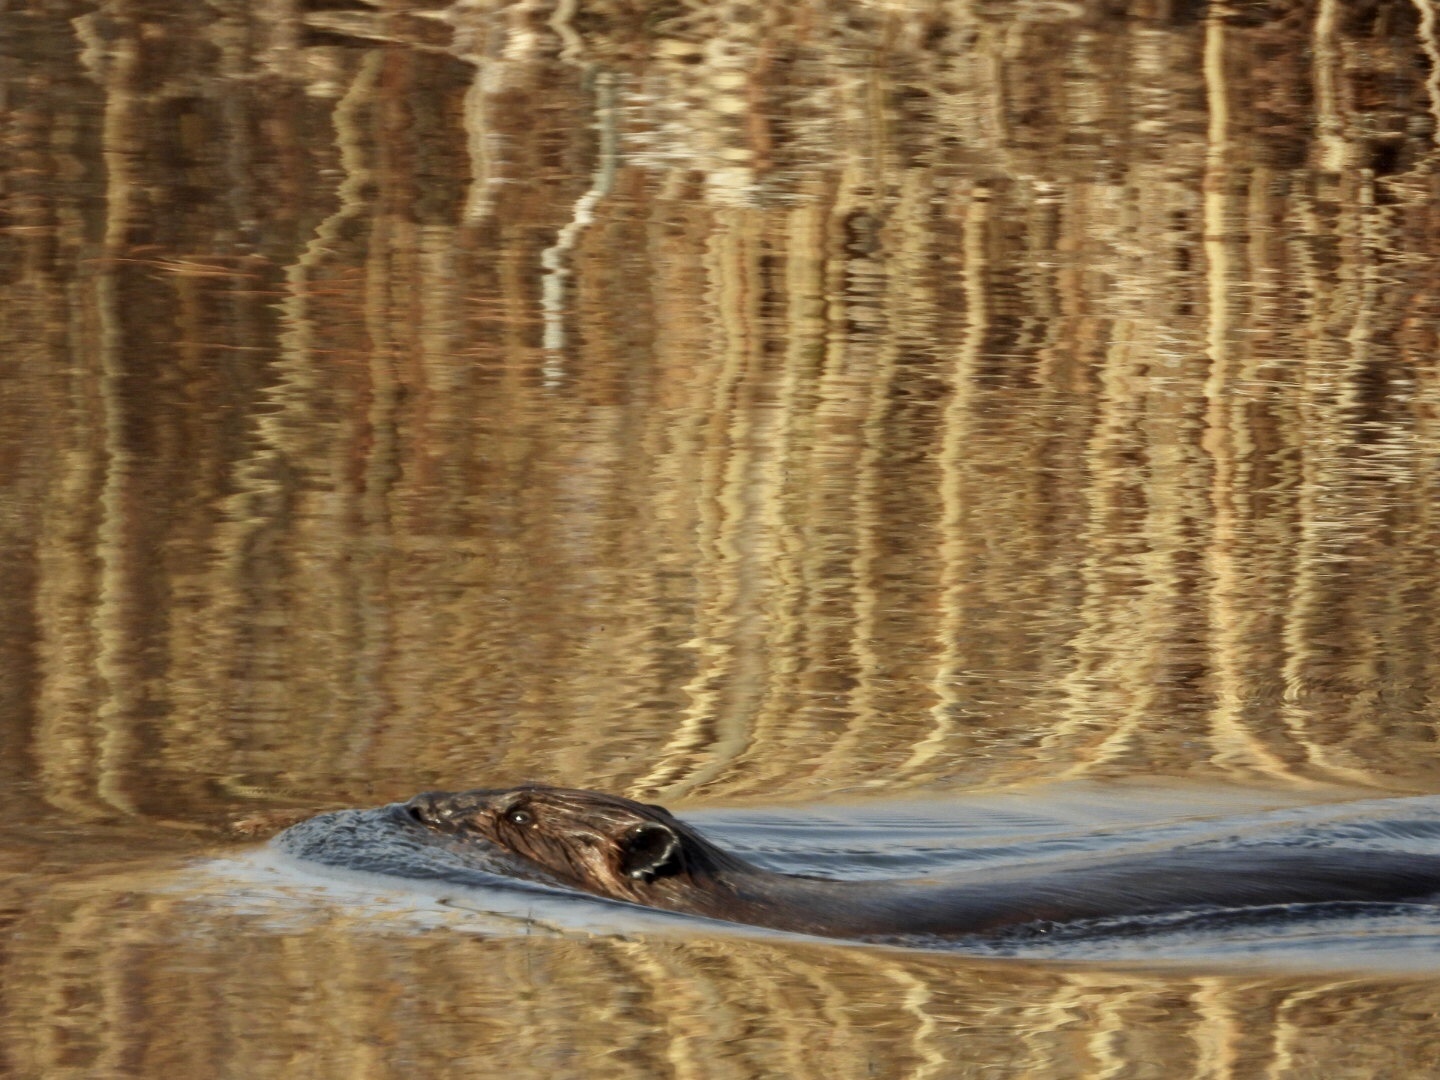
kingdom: Animalia
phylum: Chordata
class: Mammalia
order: Rodentia
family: Castoridae
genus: Castor
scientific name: Castor canadensis
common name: American beaver
